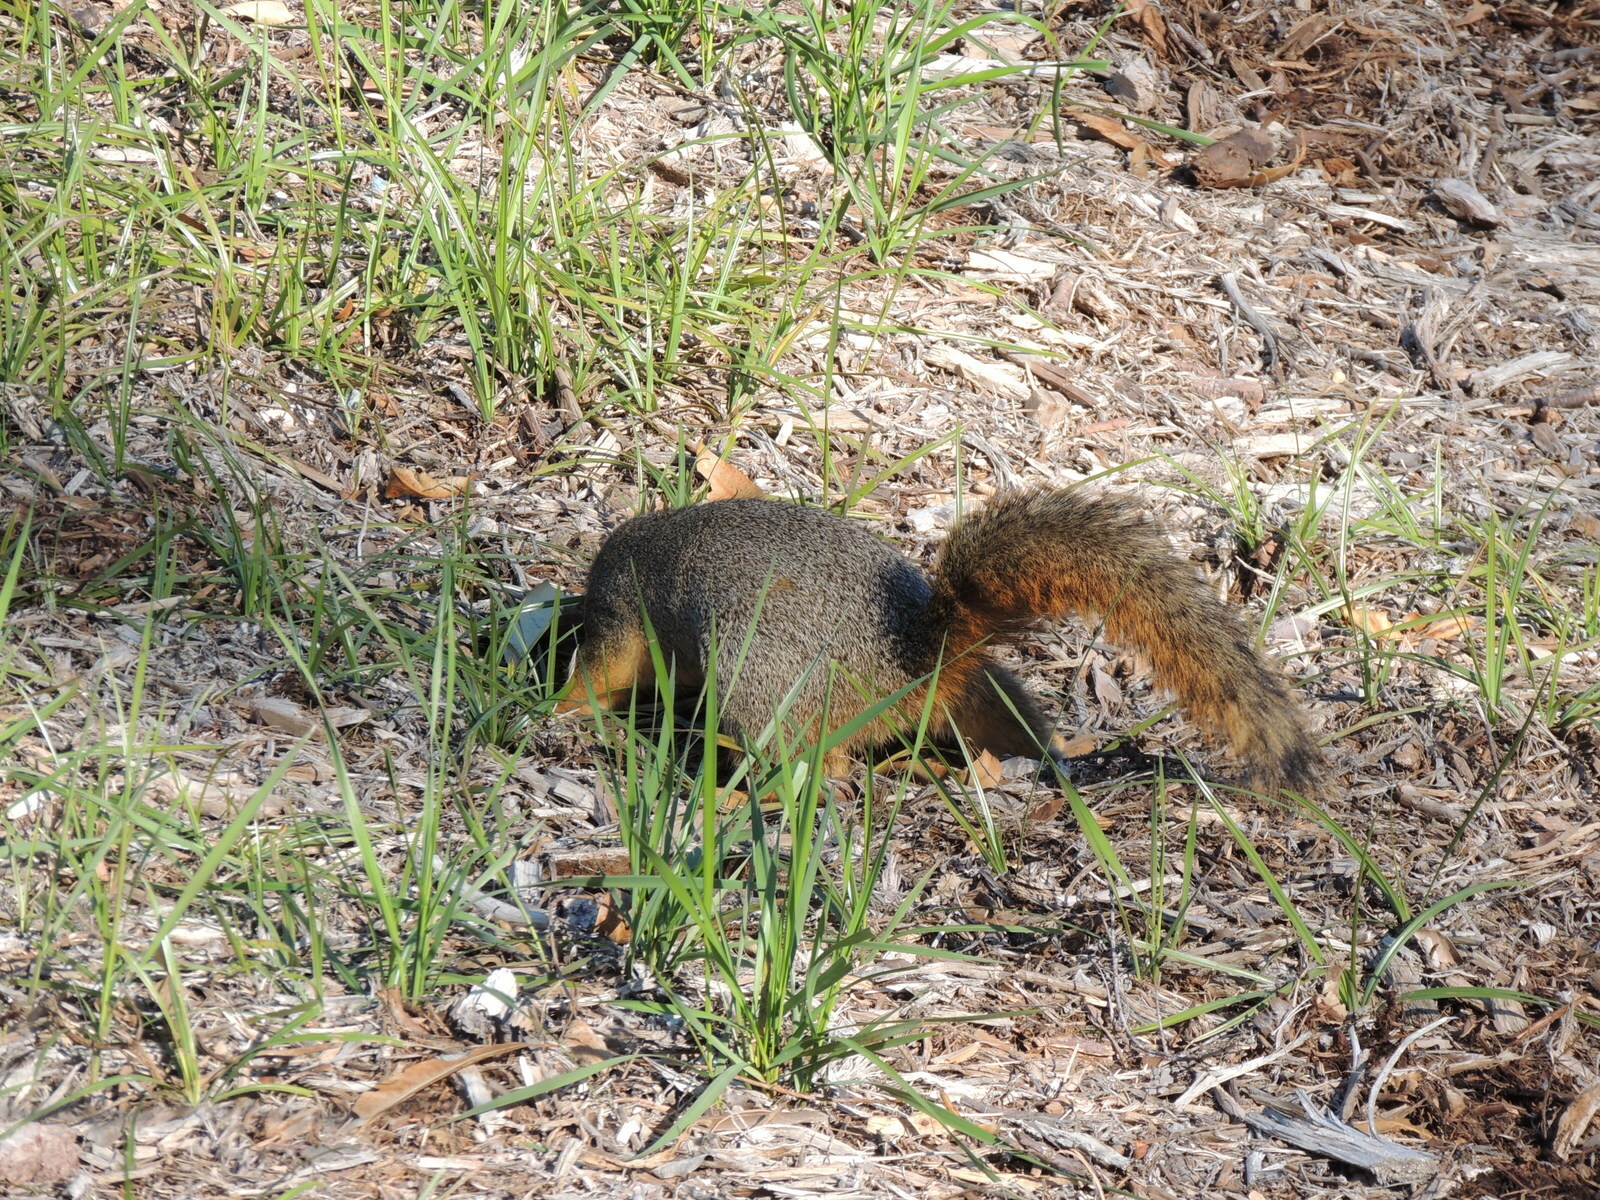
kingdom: Animalia
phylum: Chordata
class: Mammalia
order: Rodentia
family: Sciuridae
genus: Sciurus
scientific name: Sciurus niger
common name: Fox squirrel
